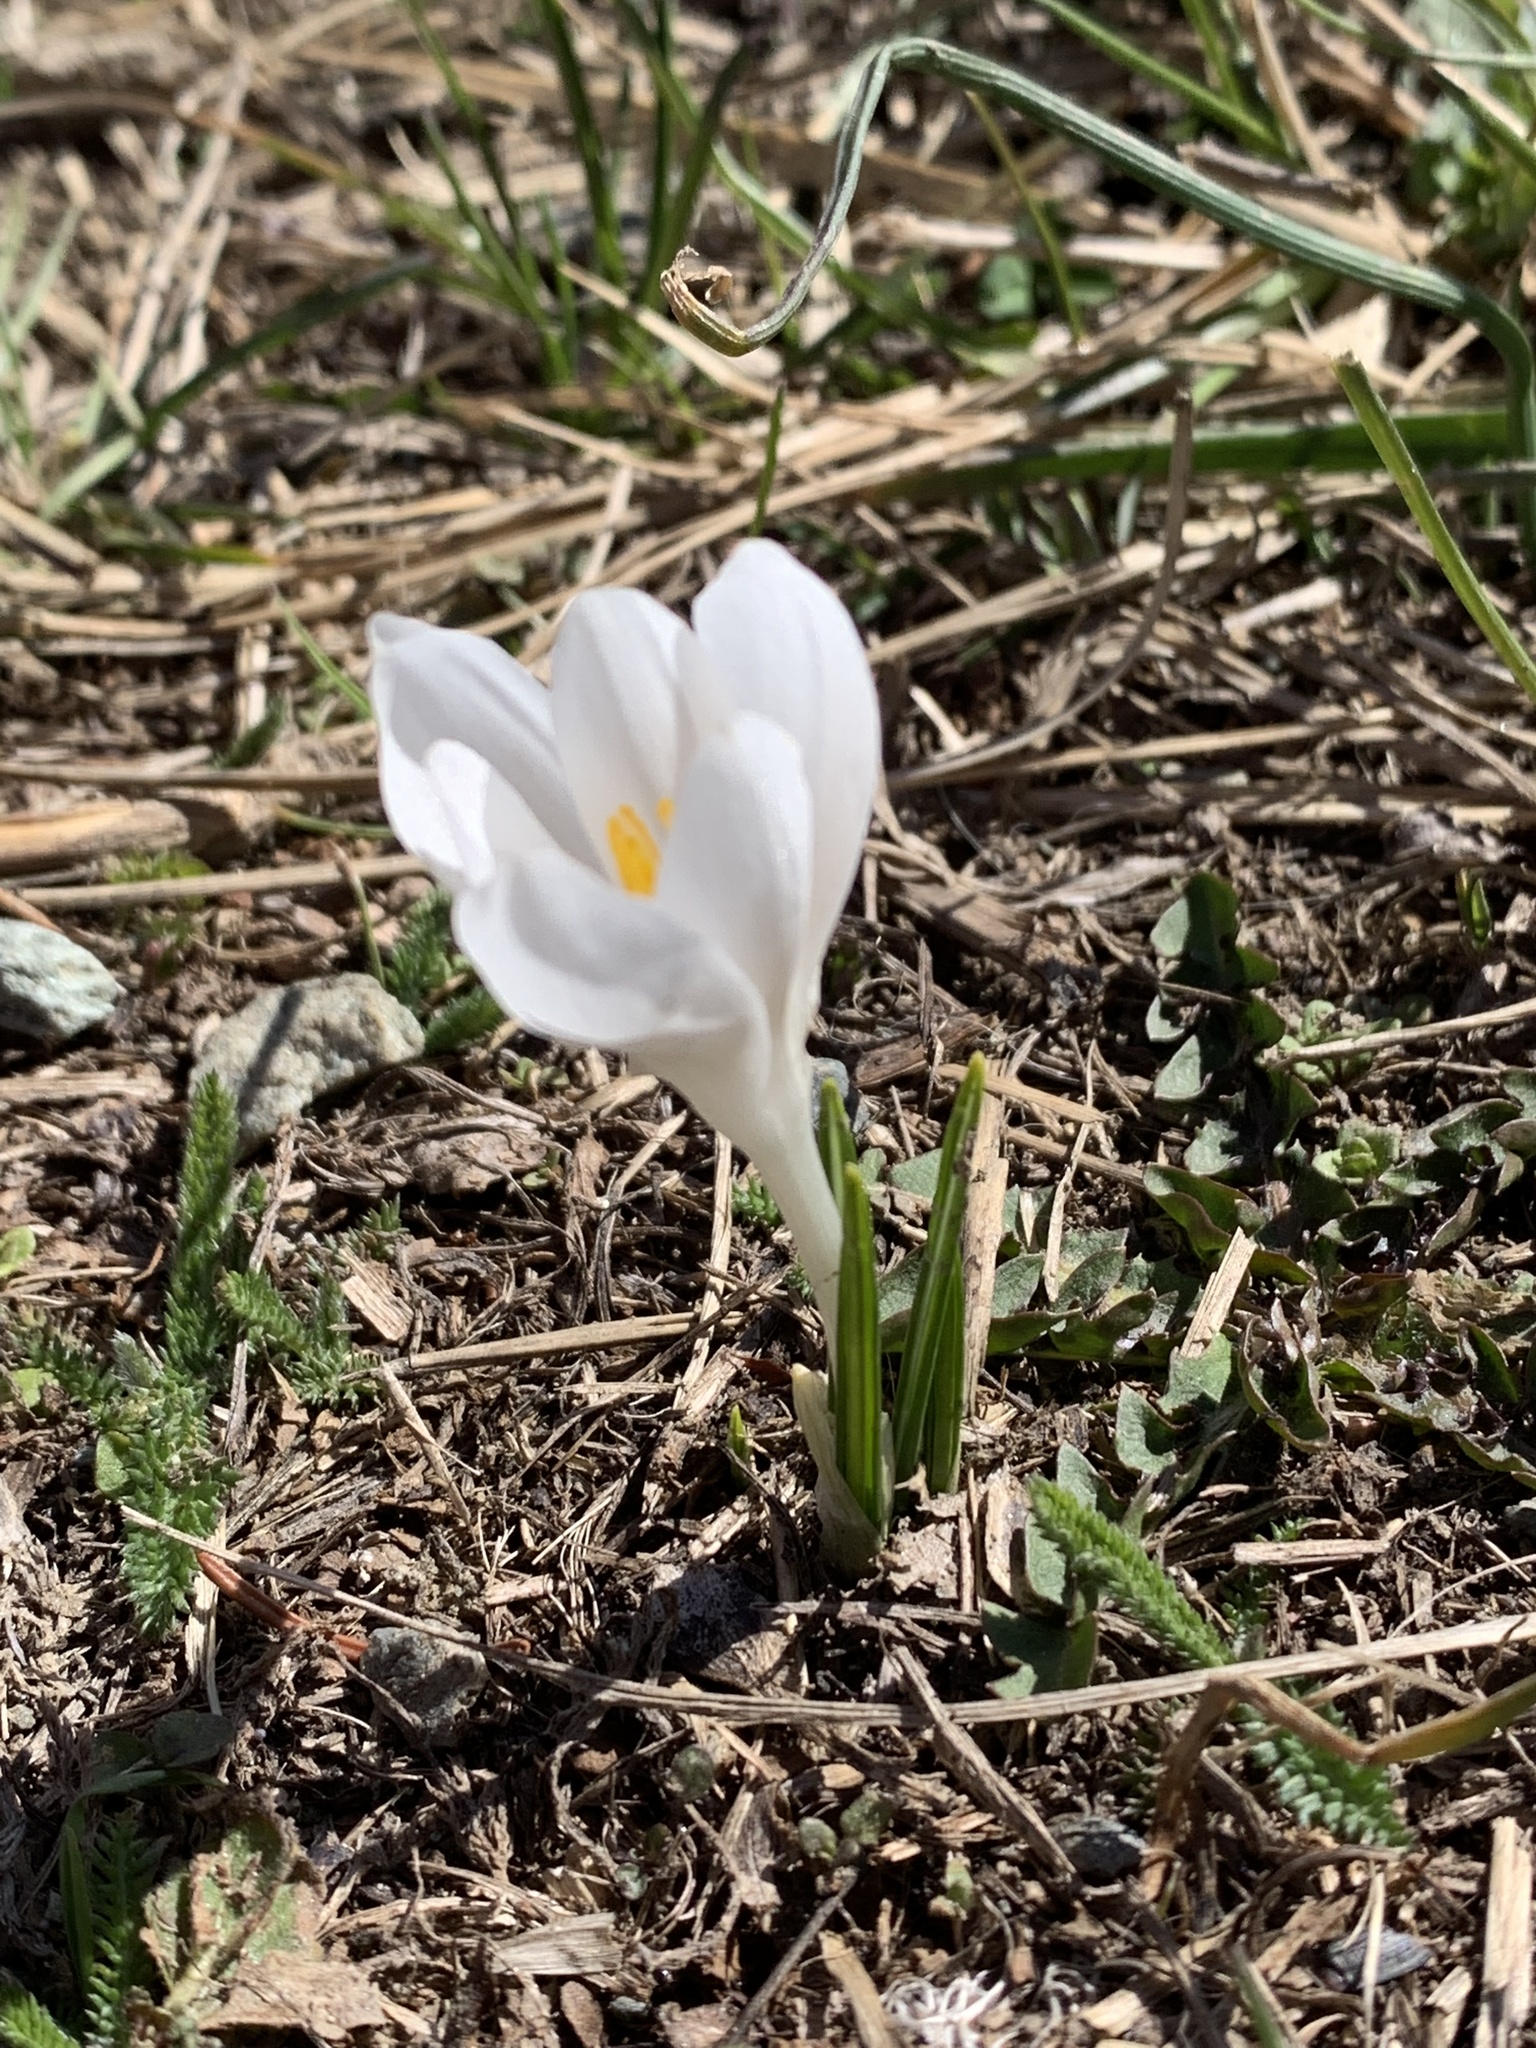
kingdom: Plantae
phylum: Tracheophyta
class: Liliopsida
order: Asparagales
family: Iridaceae
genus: Crocus
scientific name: Crocus vernus
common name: Spring crocus
